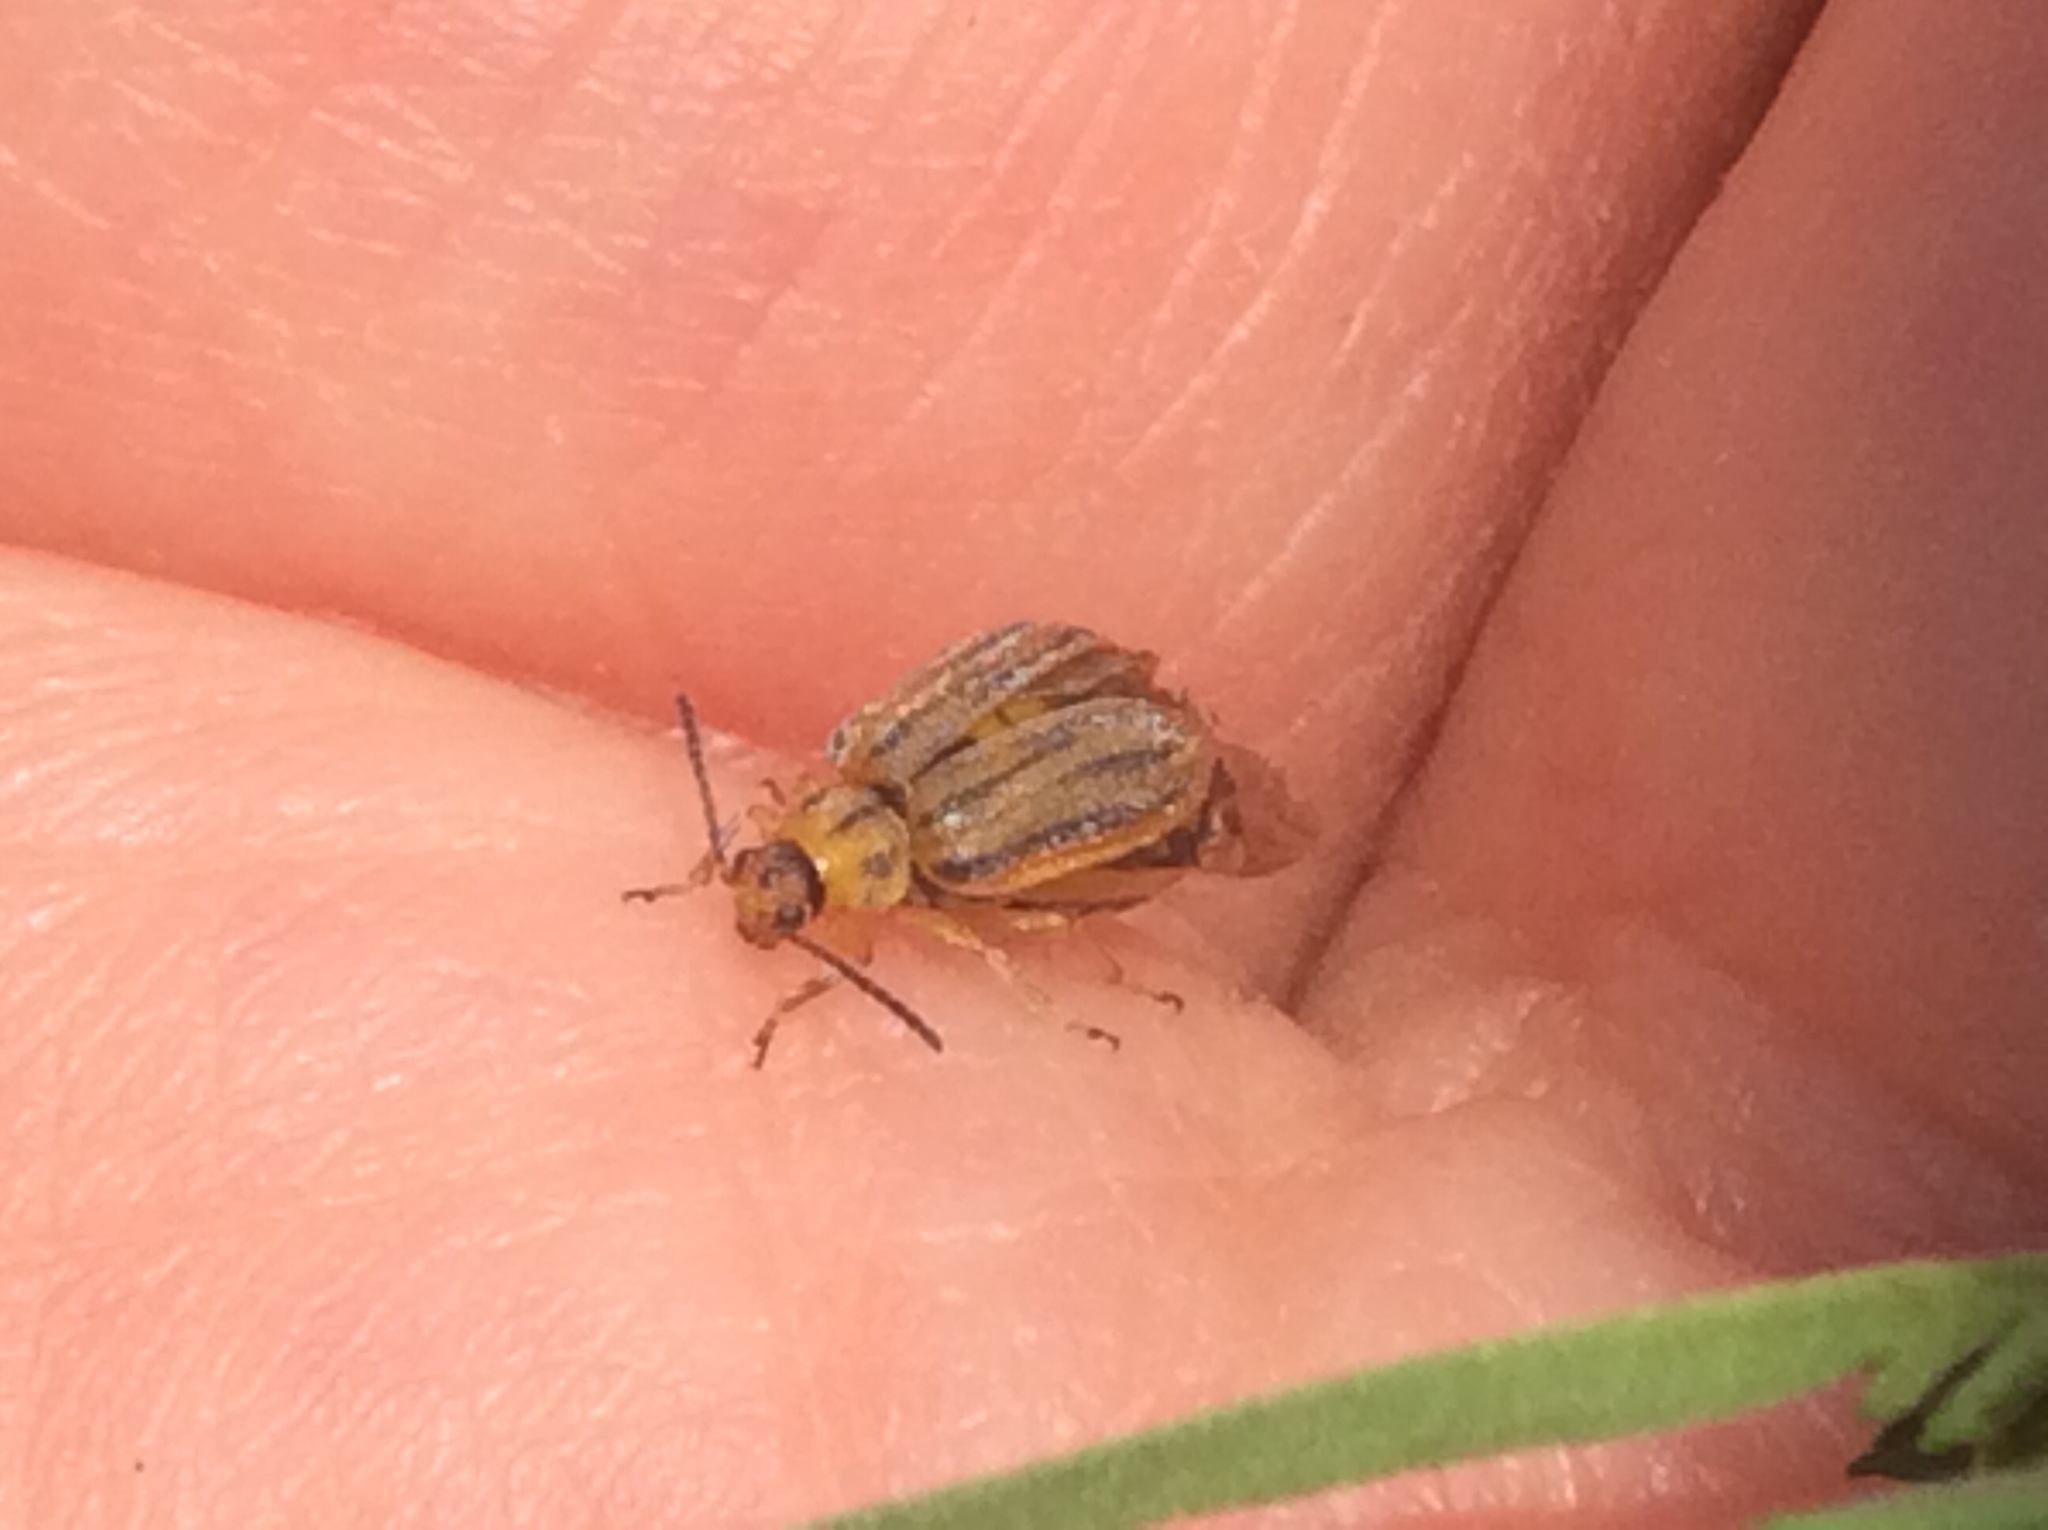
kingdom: Animalia
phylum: Arthropoda
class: Insecta
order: Coleoptera
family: Chrysomelidae
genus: Ophraella
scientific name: Ophraella communa
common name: Ragweed leaf beetle
